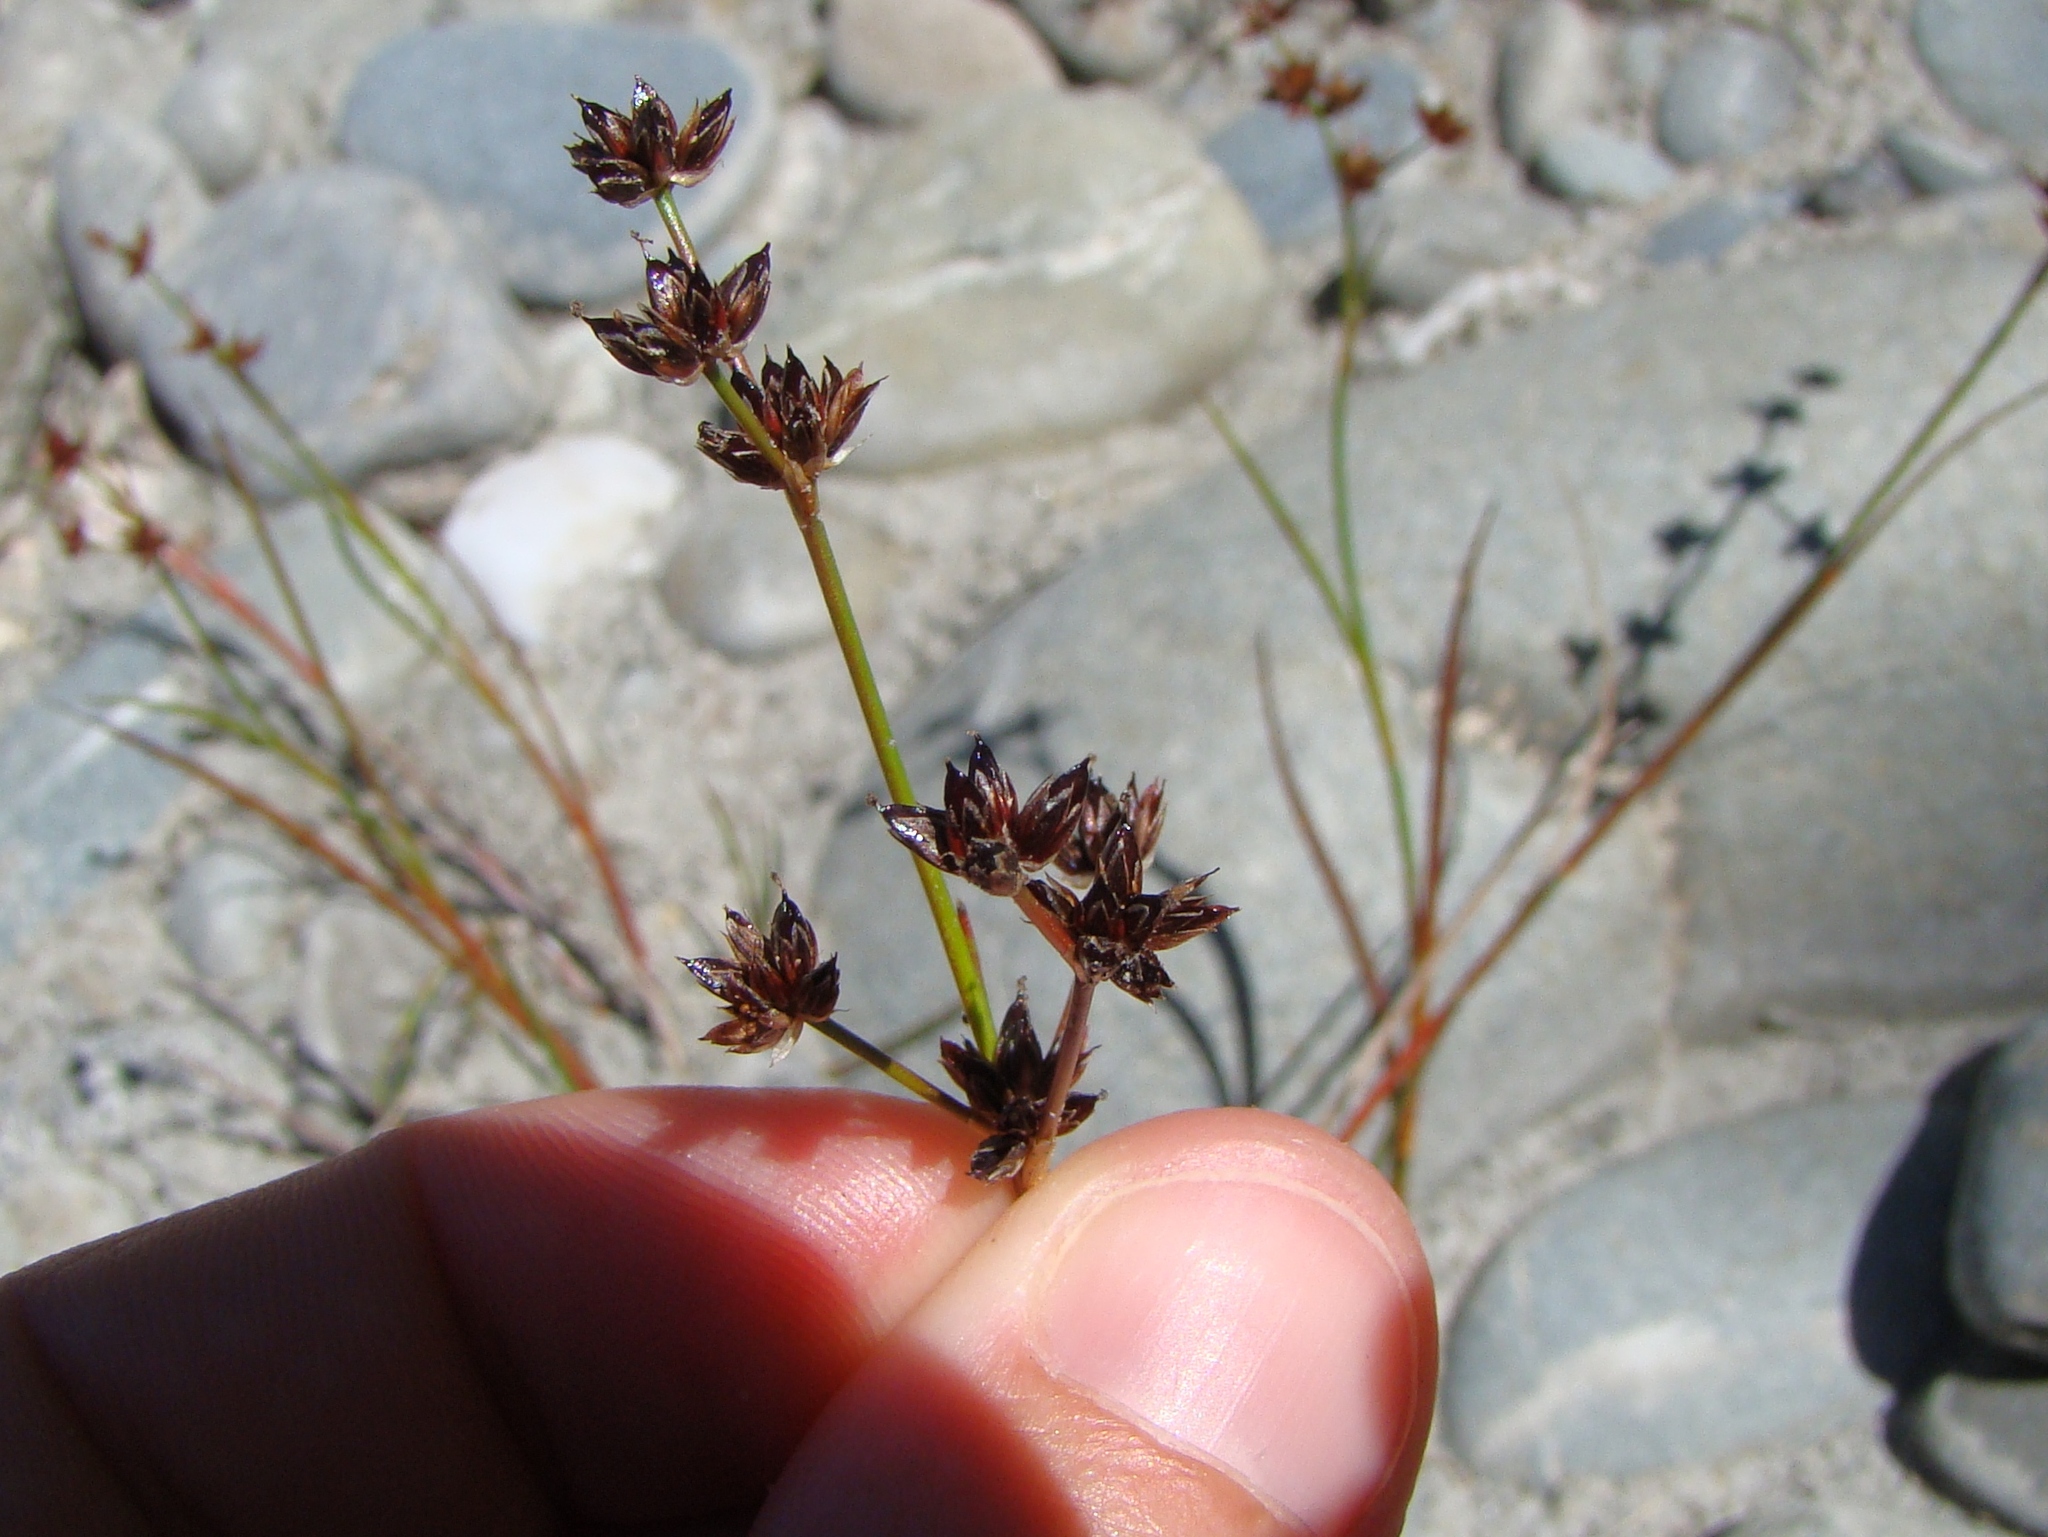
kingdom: Plantae
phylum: Tracheophyta
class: Liliopsida
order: Poales
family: Juncaceae
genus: Juncus
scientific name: Juncus articulatus
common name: Jointed rush
